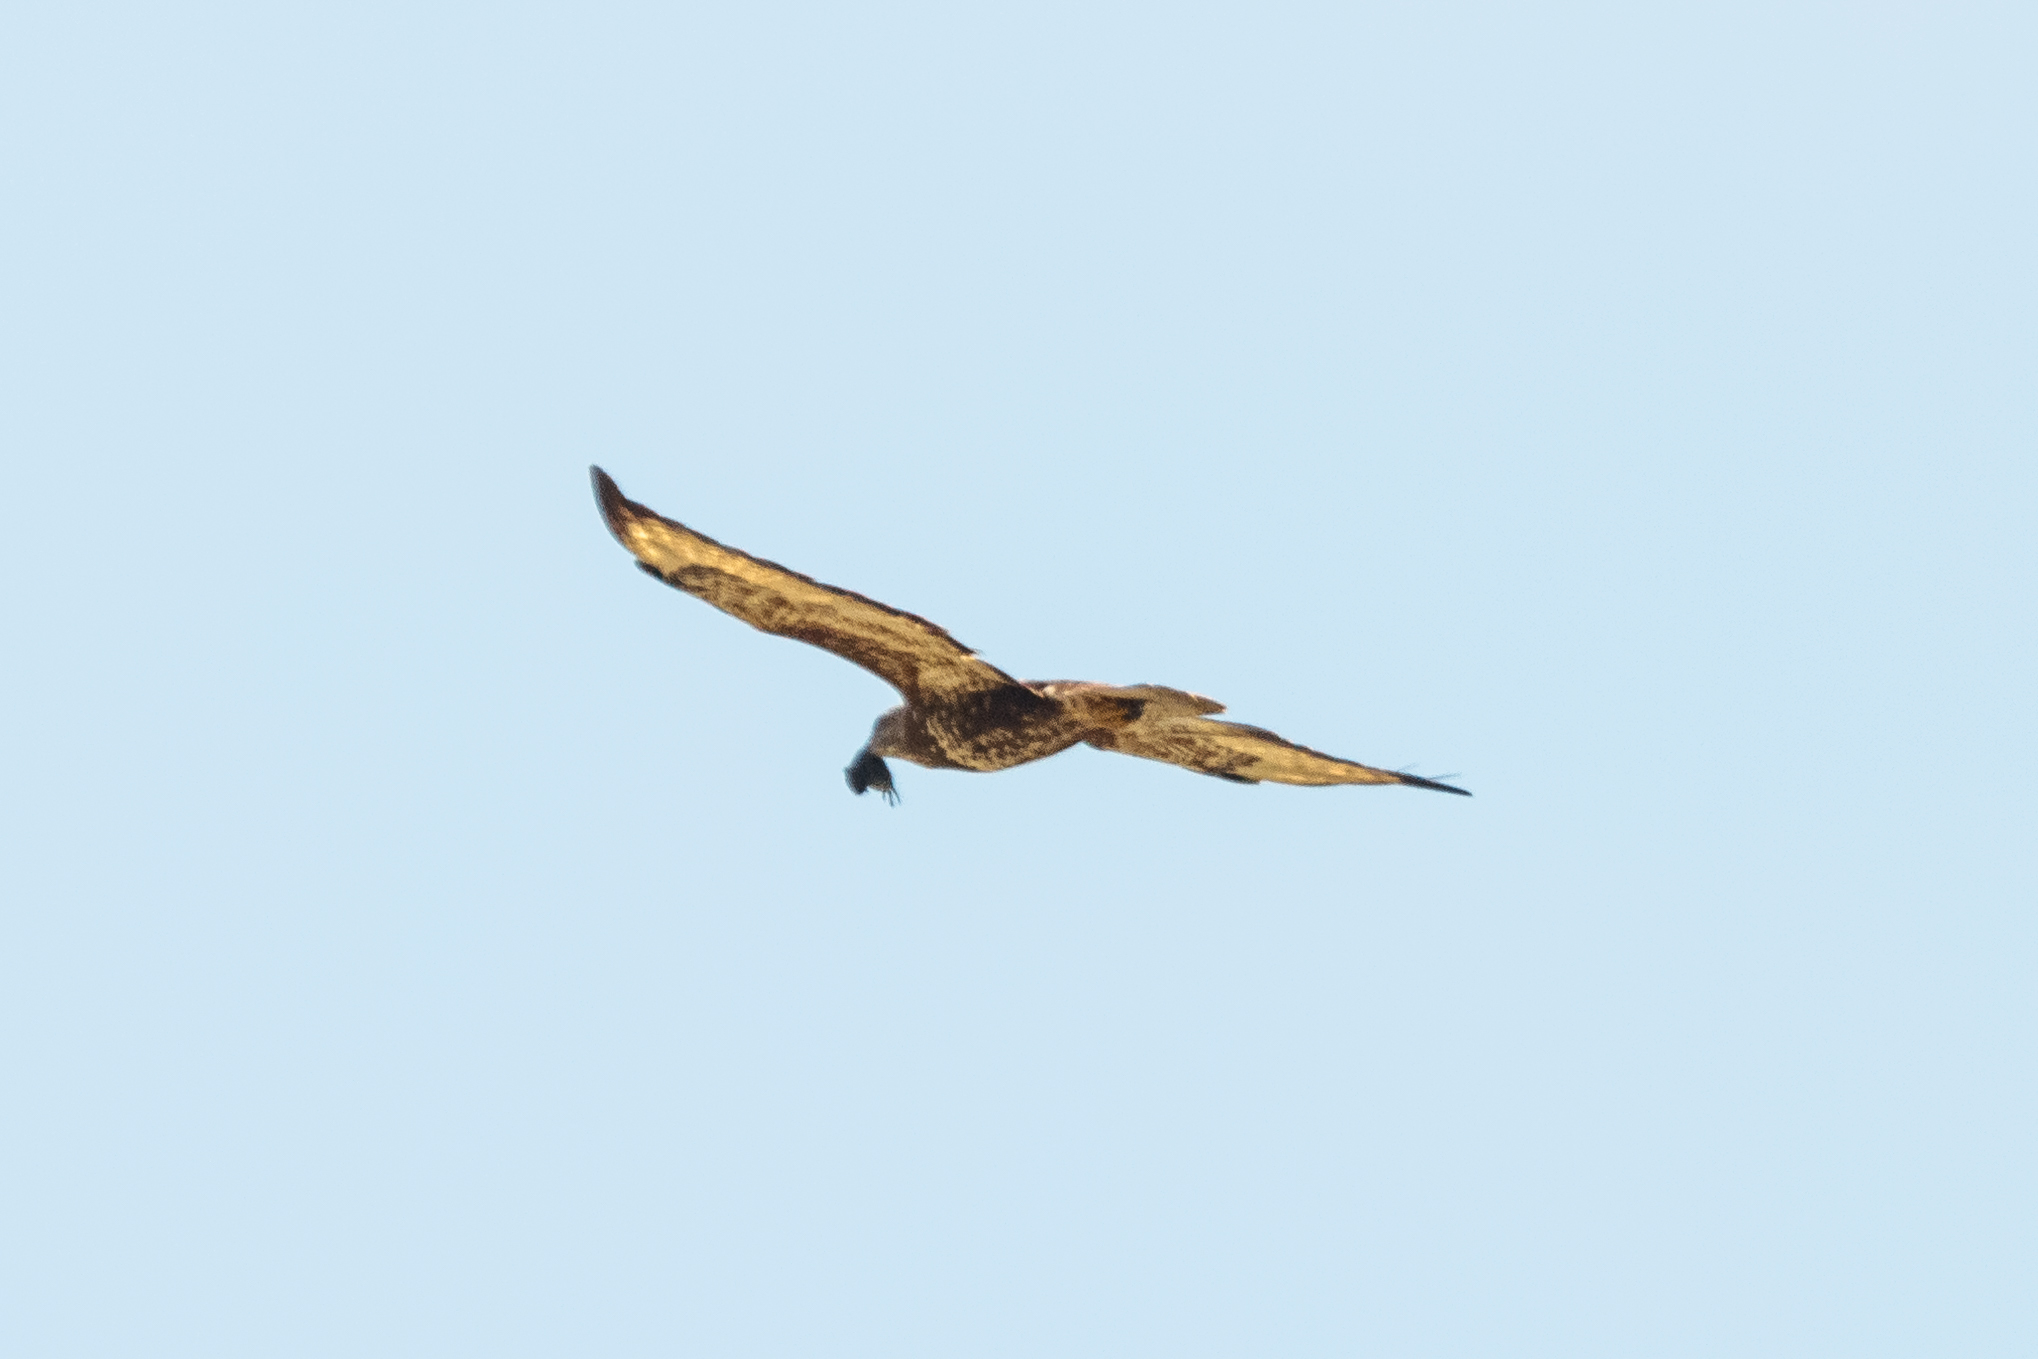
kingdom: Animalia
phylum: Chordata
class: Aves
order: Accipitriformes
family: Accipitridae
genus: Pernis
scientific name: Pernis apivorus
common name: European honey buzzard
